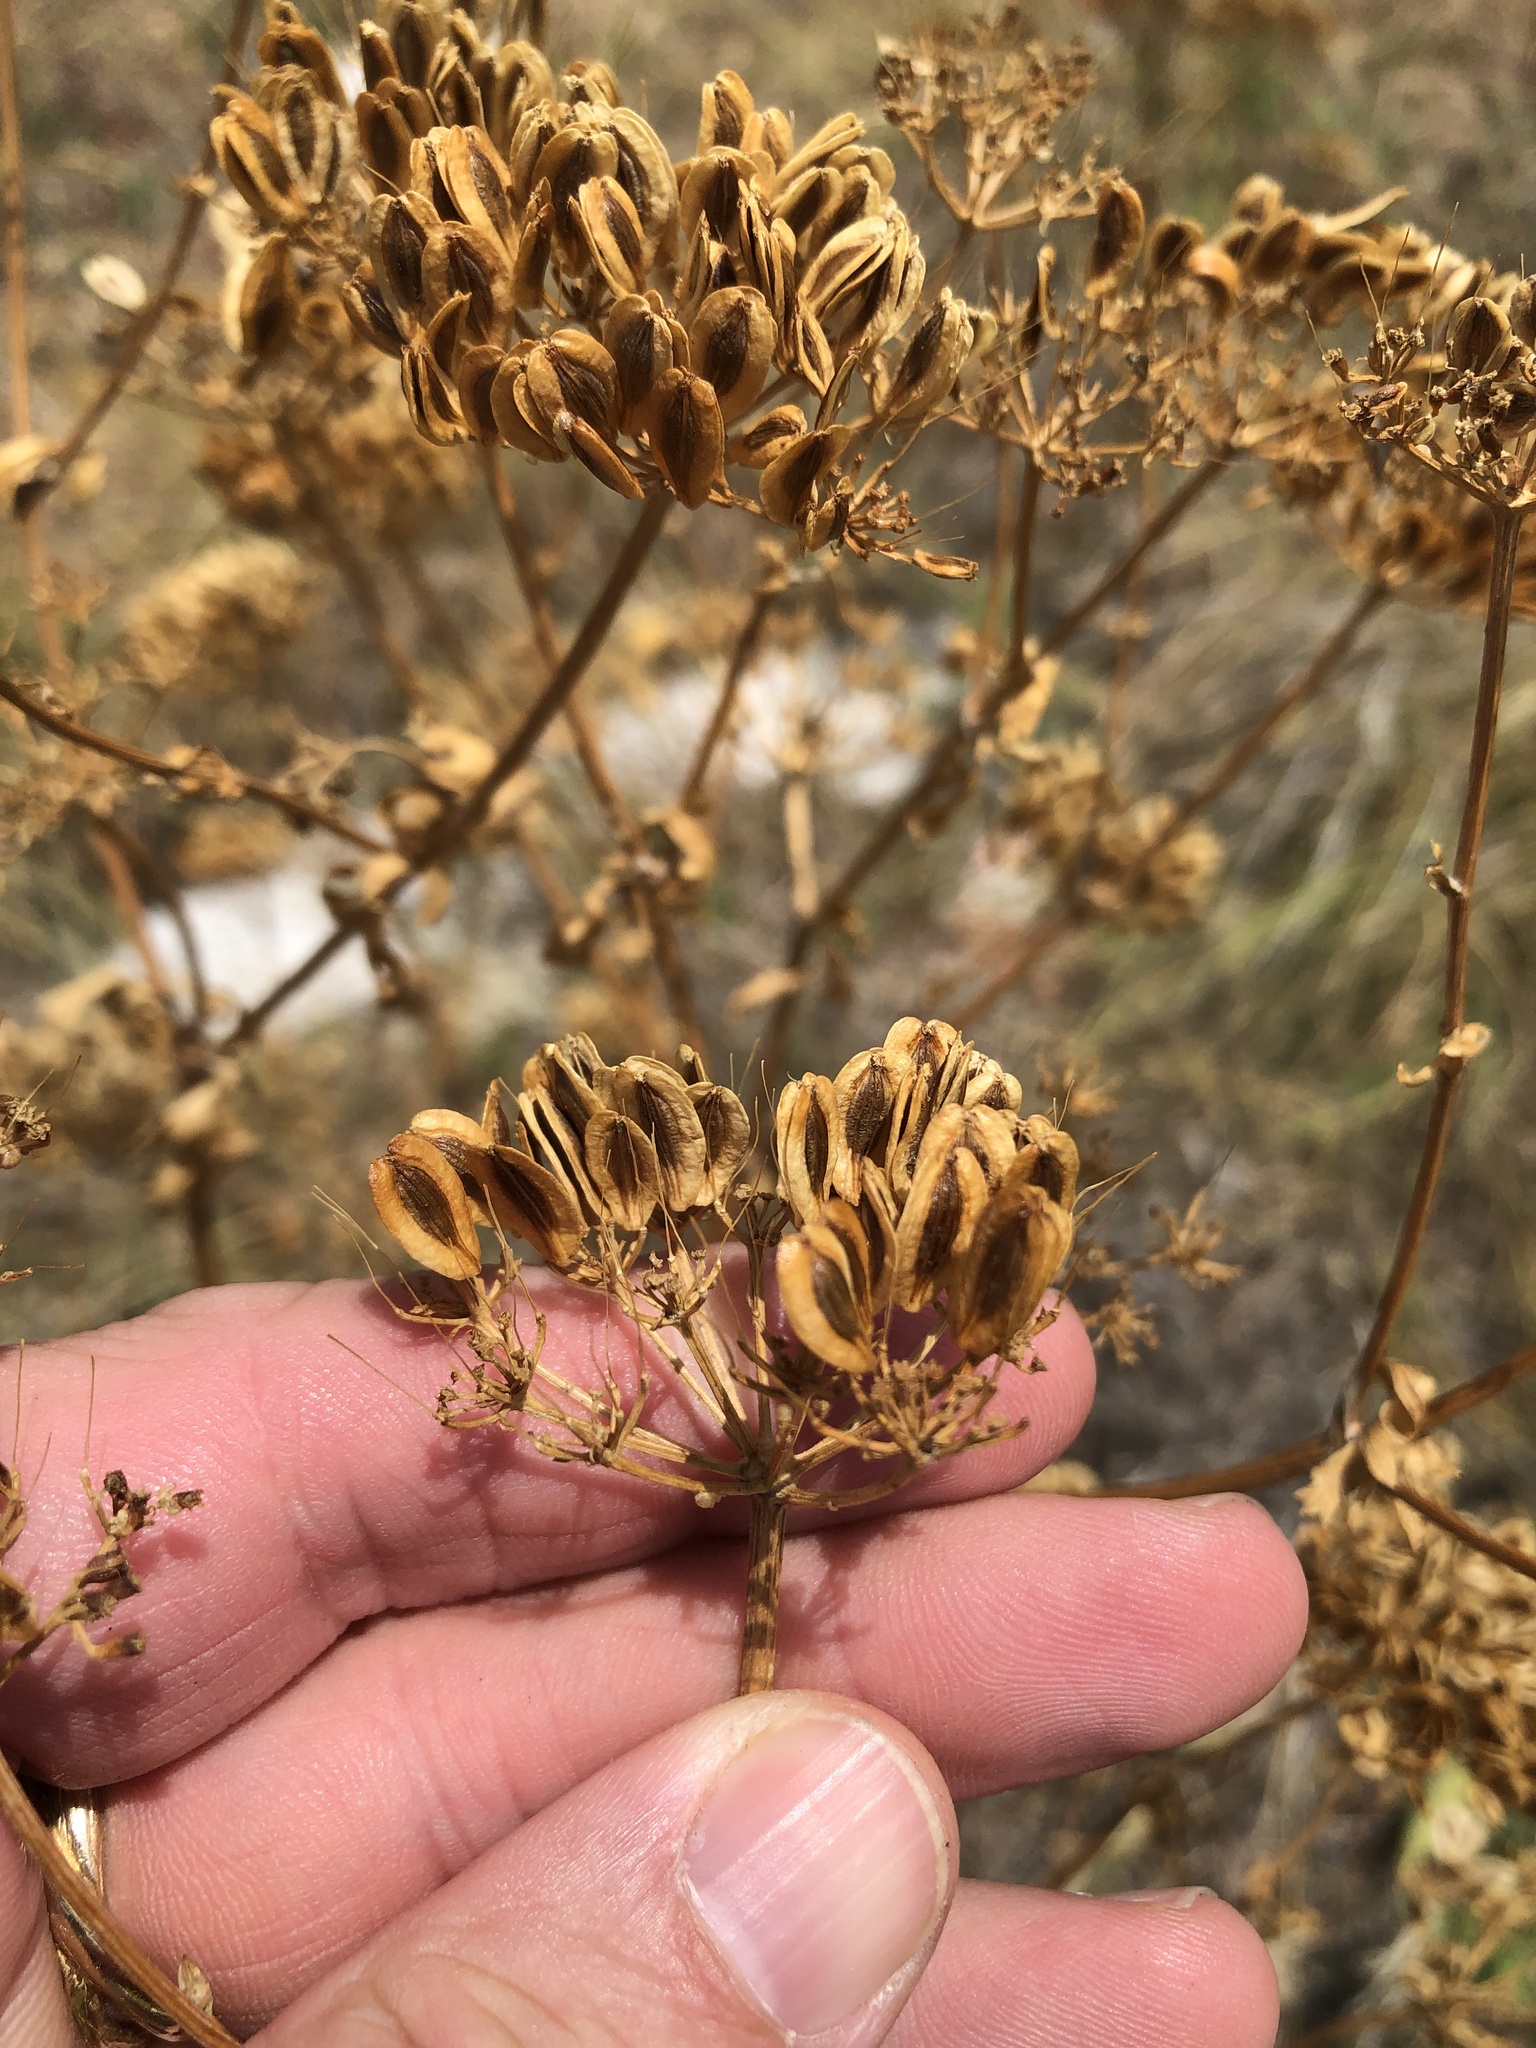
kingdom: Plantae
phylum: Tracheophyta
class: Magnoliopsida
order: Apiales
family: Apiaceae
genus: Polytaenia
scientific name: Polytaenia texana
